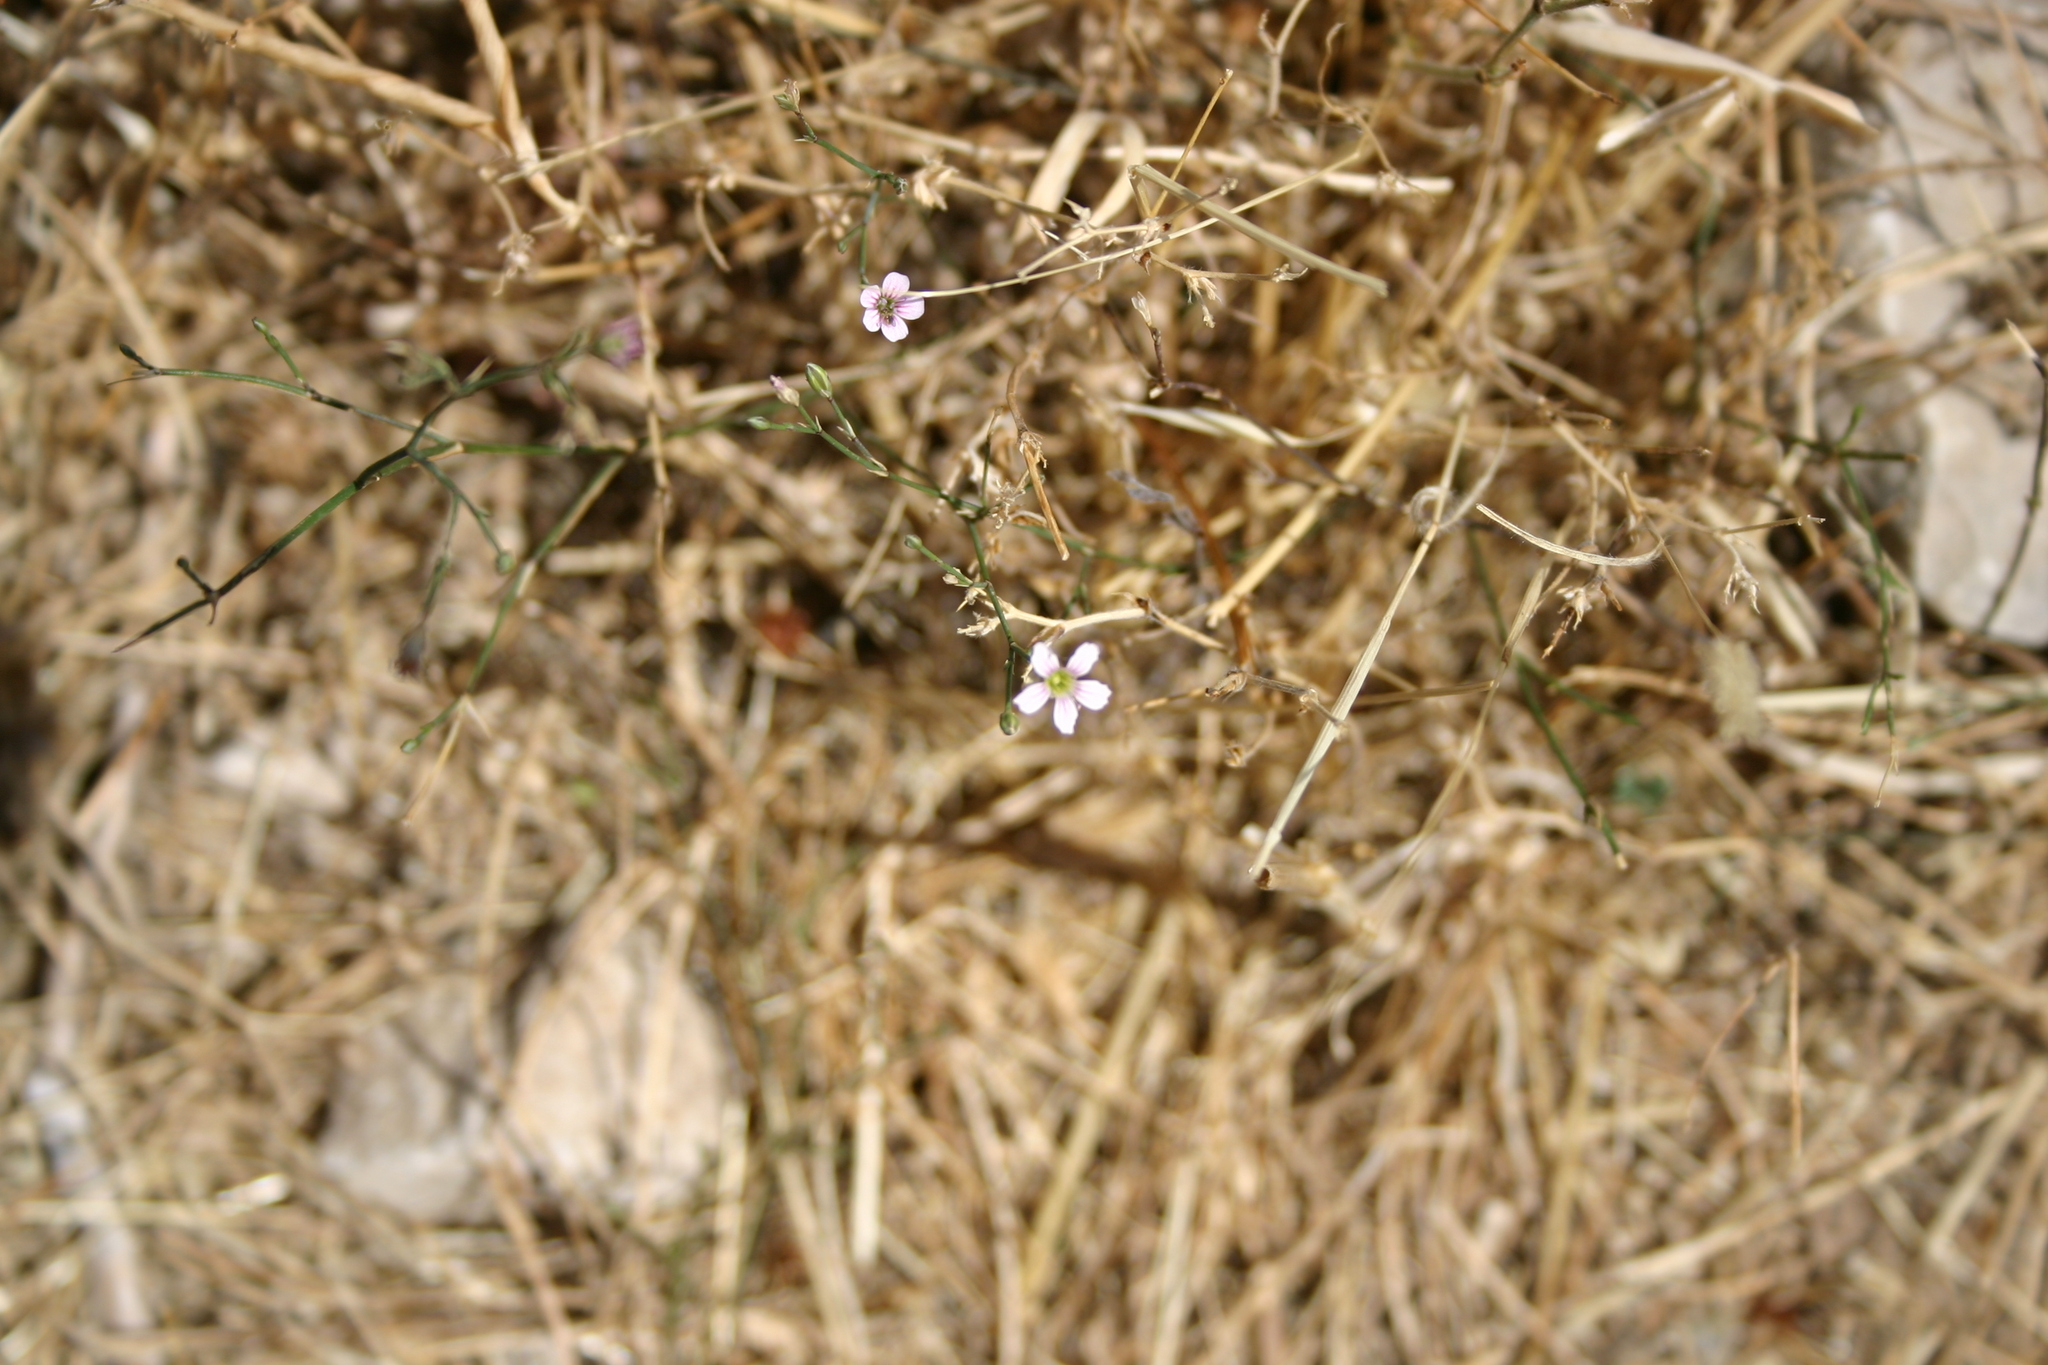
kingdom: Plantae
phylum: Tracheophyta
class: Magnoliopsida
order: Caryophyllales
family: Caryophyllaceae
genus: Petrorhagia
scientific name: Petrorhagia saxifraga
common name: Tunicflower
